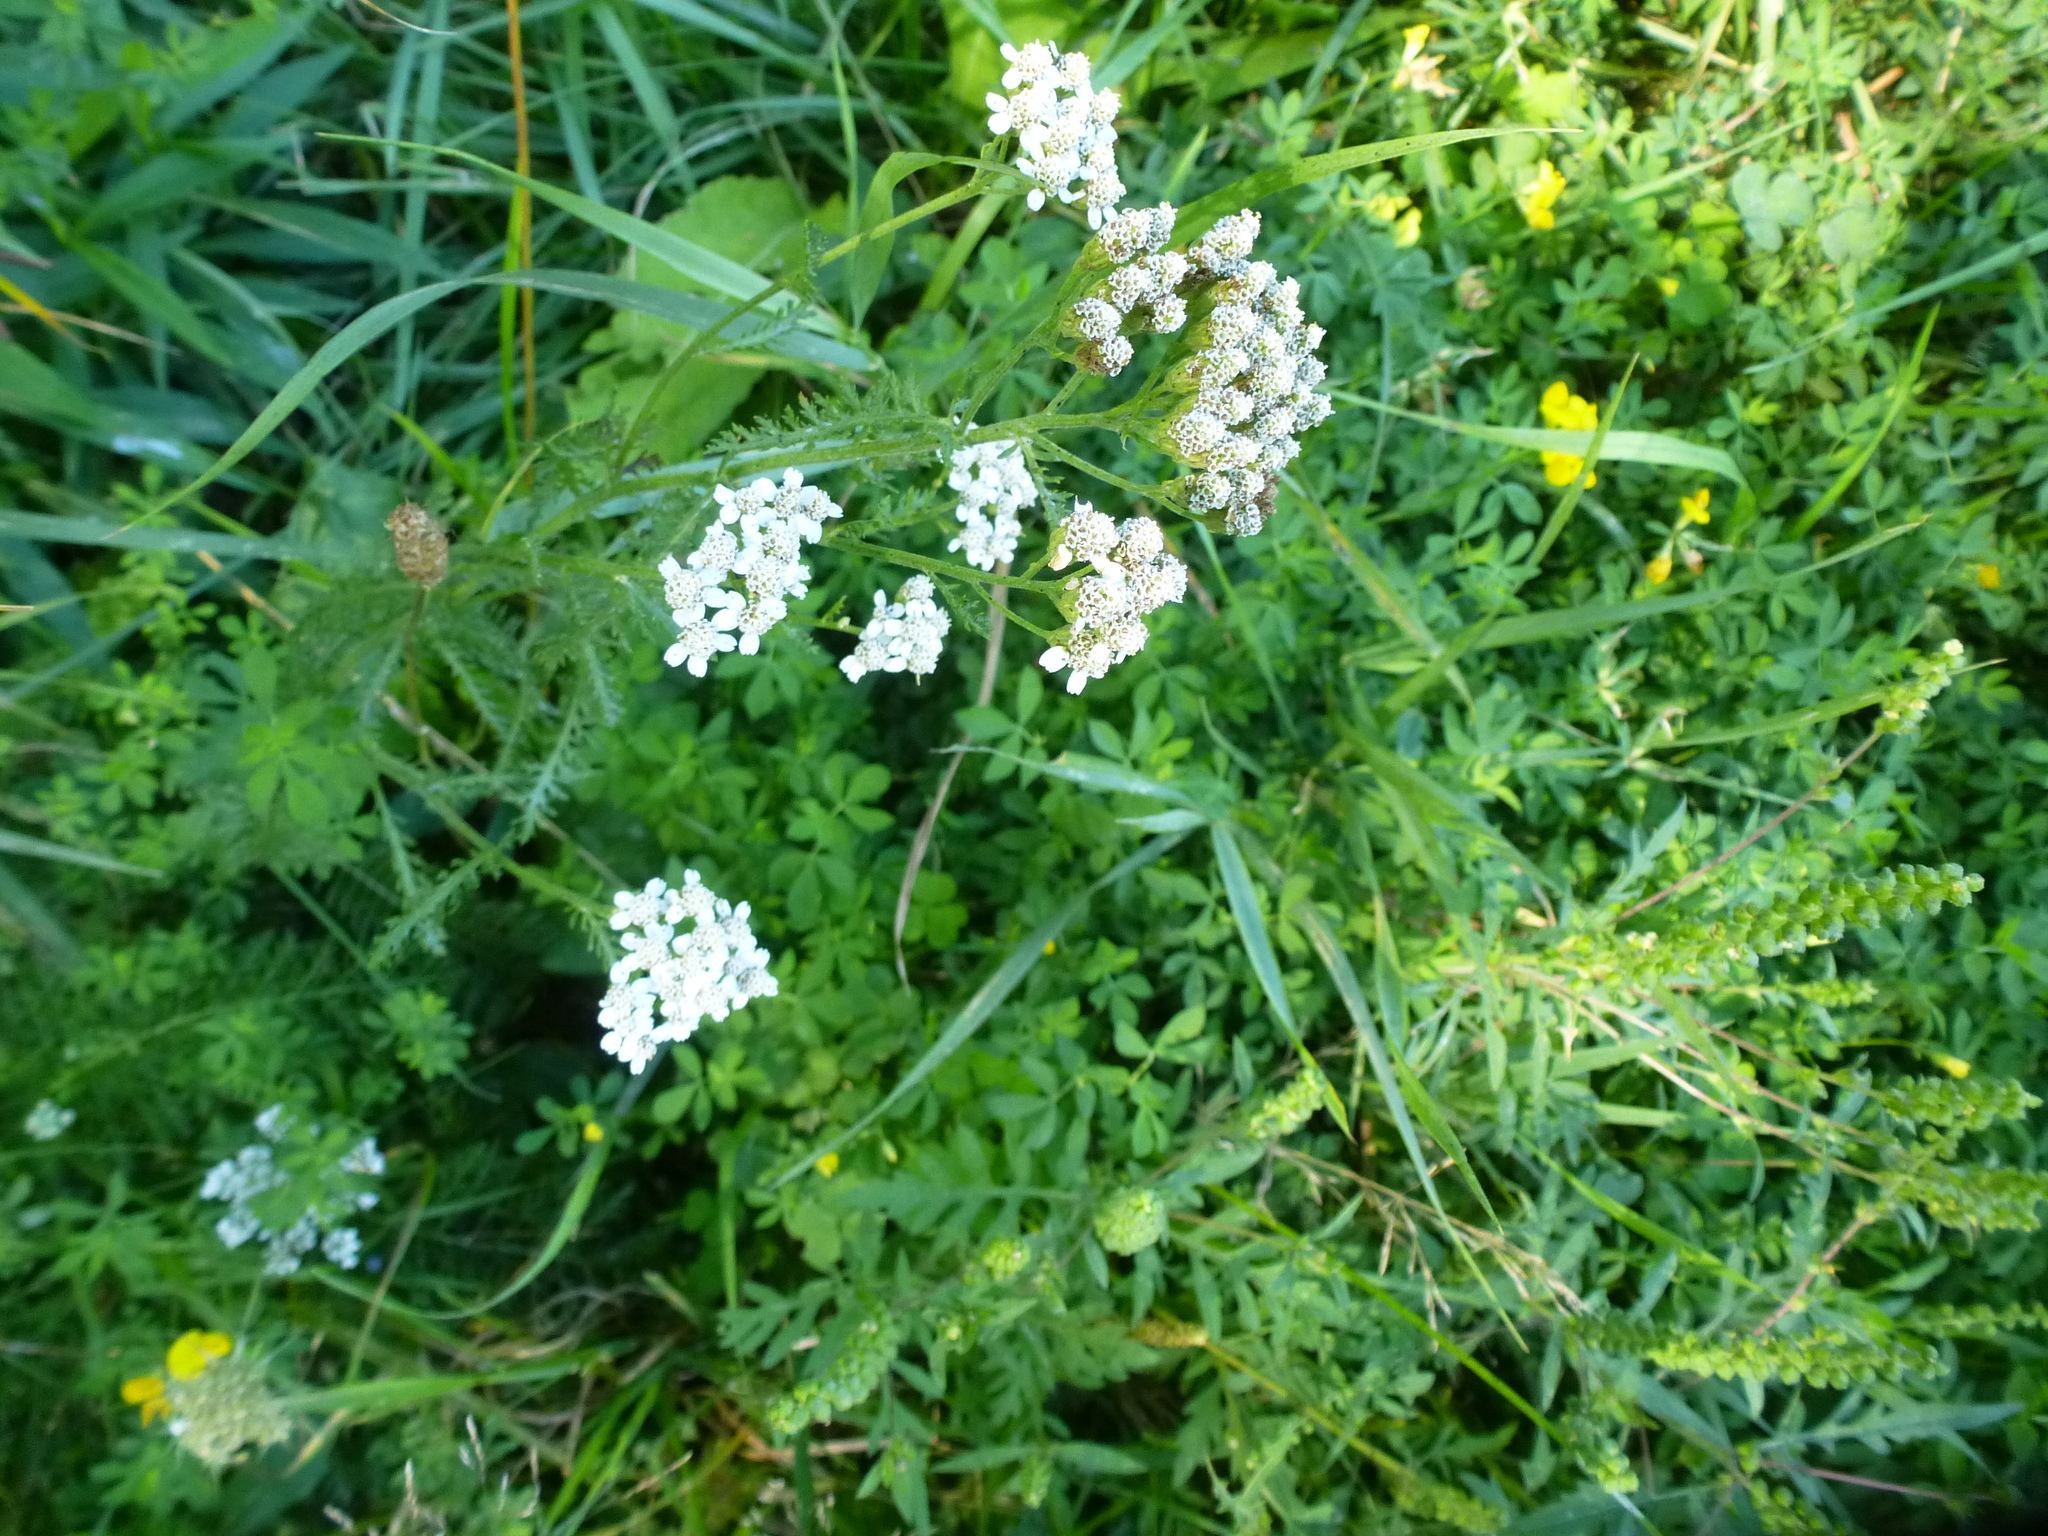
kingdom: Plantae
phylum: Tracheophyta
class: Magnoliopsida
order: Asterales
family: Asteraceae
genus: Achillea
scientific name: Achillea millefolium
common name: Yarrow
